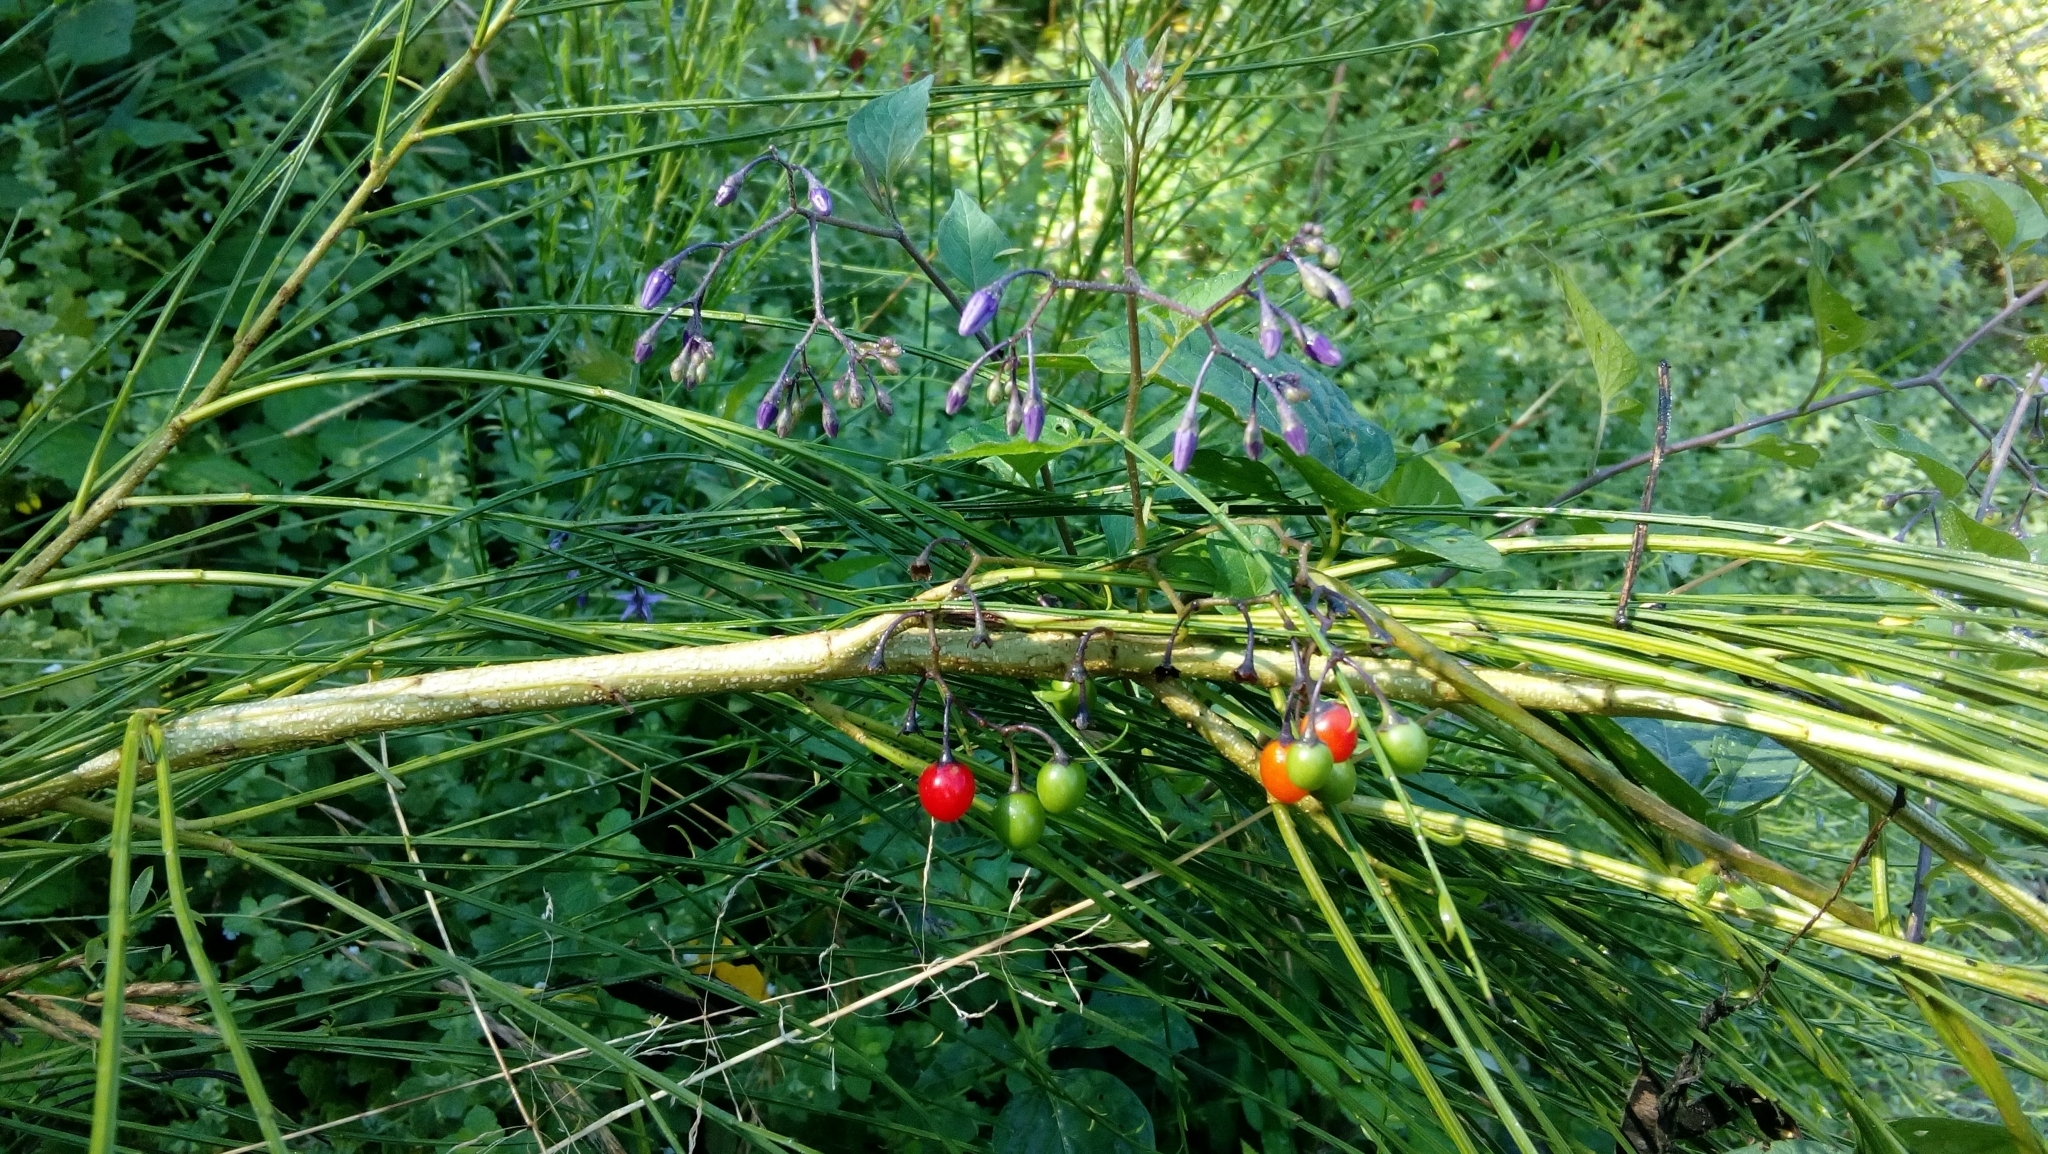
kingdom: Plantae
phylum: Tracheophyta
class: Magnoliopsida
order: Solanales
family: Solanaceae
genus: Solanum
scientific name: Solanum dulcamara
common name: Climbing nightshade
